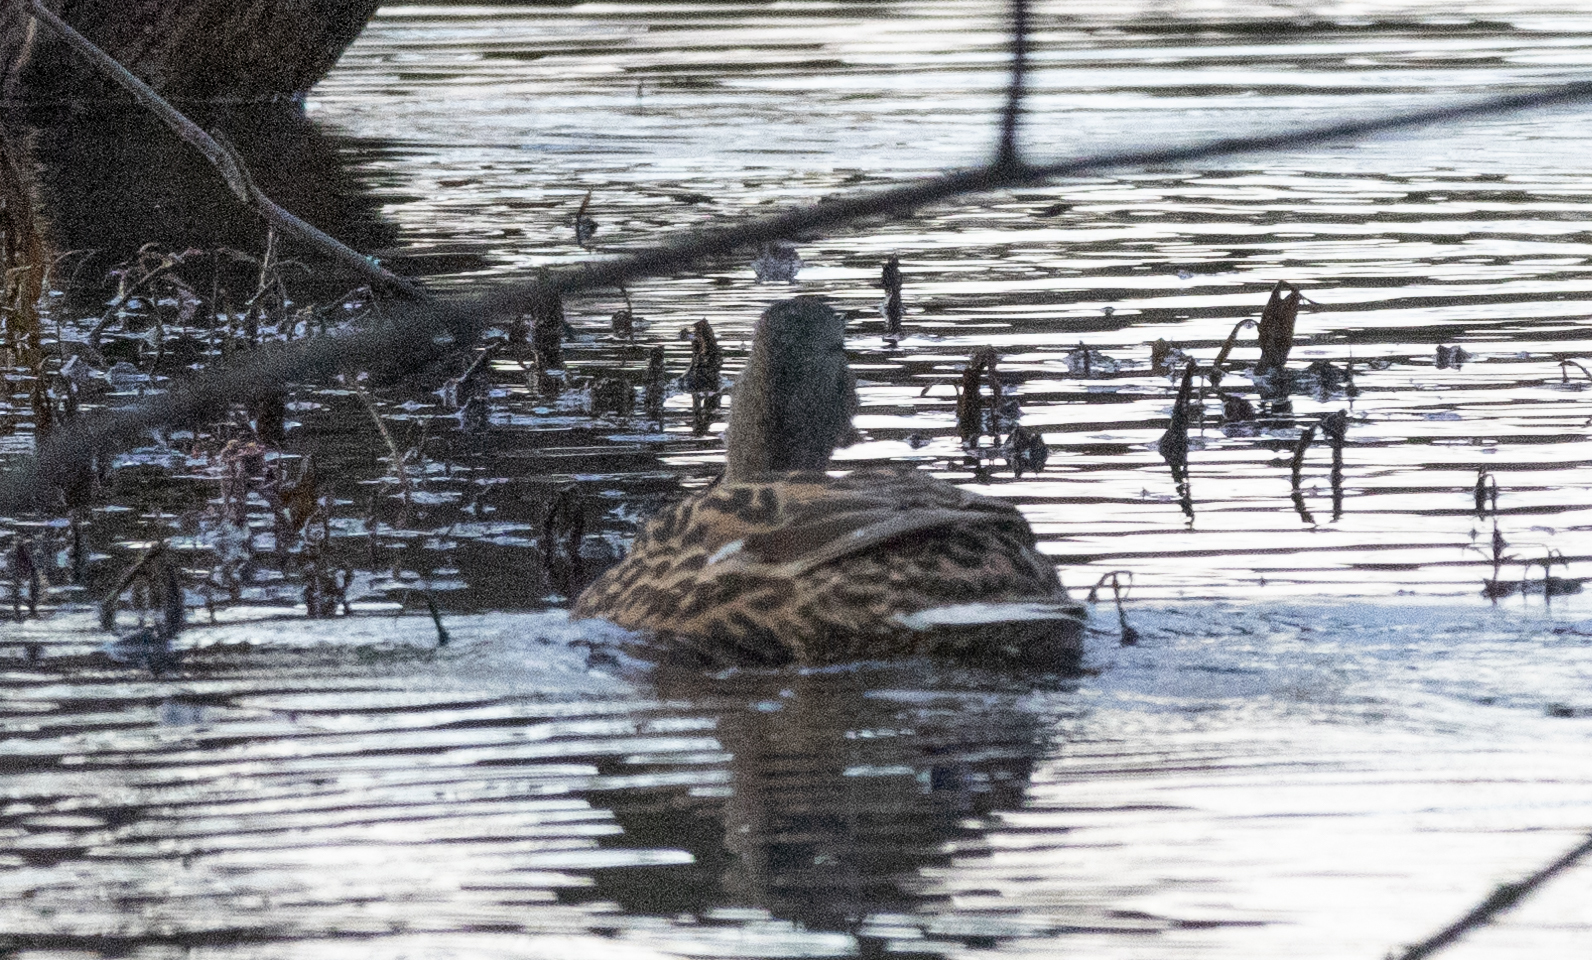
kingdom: Animalia
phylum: Chordata
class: Aves
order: Anseriformes
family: Anatidae
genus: Anas
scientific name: Anas platyrhynchos
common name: Mallard
